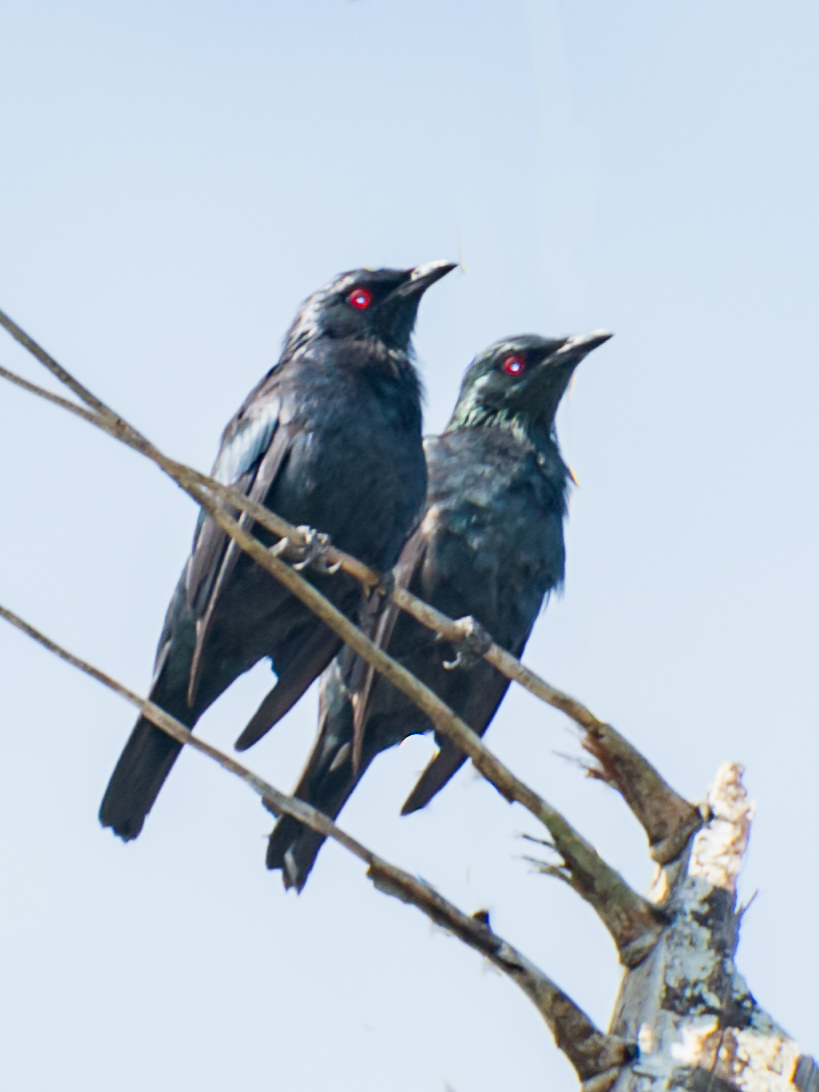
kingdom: Animalia
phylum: Chordata
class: Aves
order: Passeriformes
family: Sturnidae
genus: Aplonis
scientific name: Aplonis panayensis
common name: Asian glossy starling
